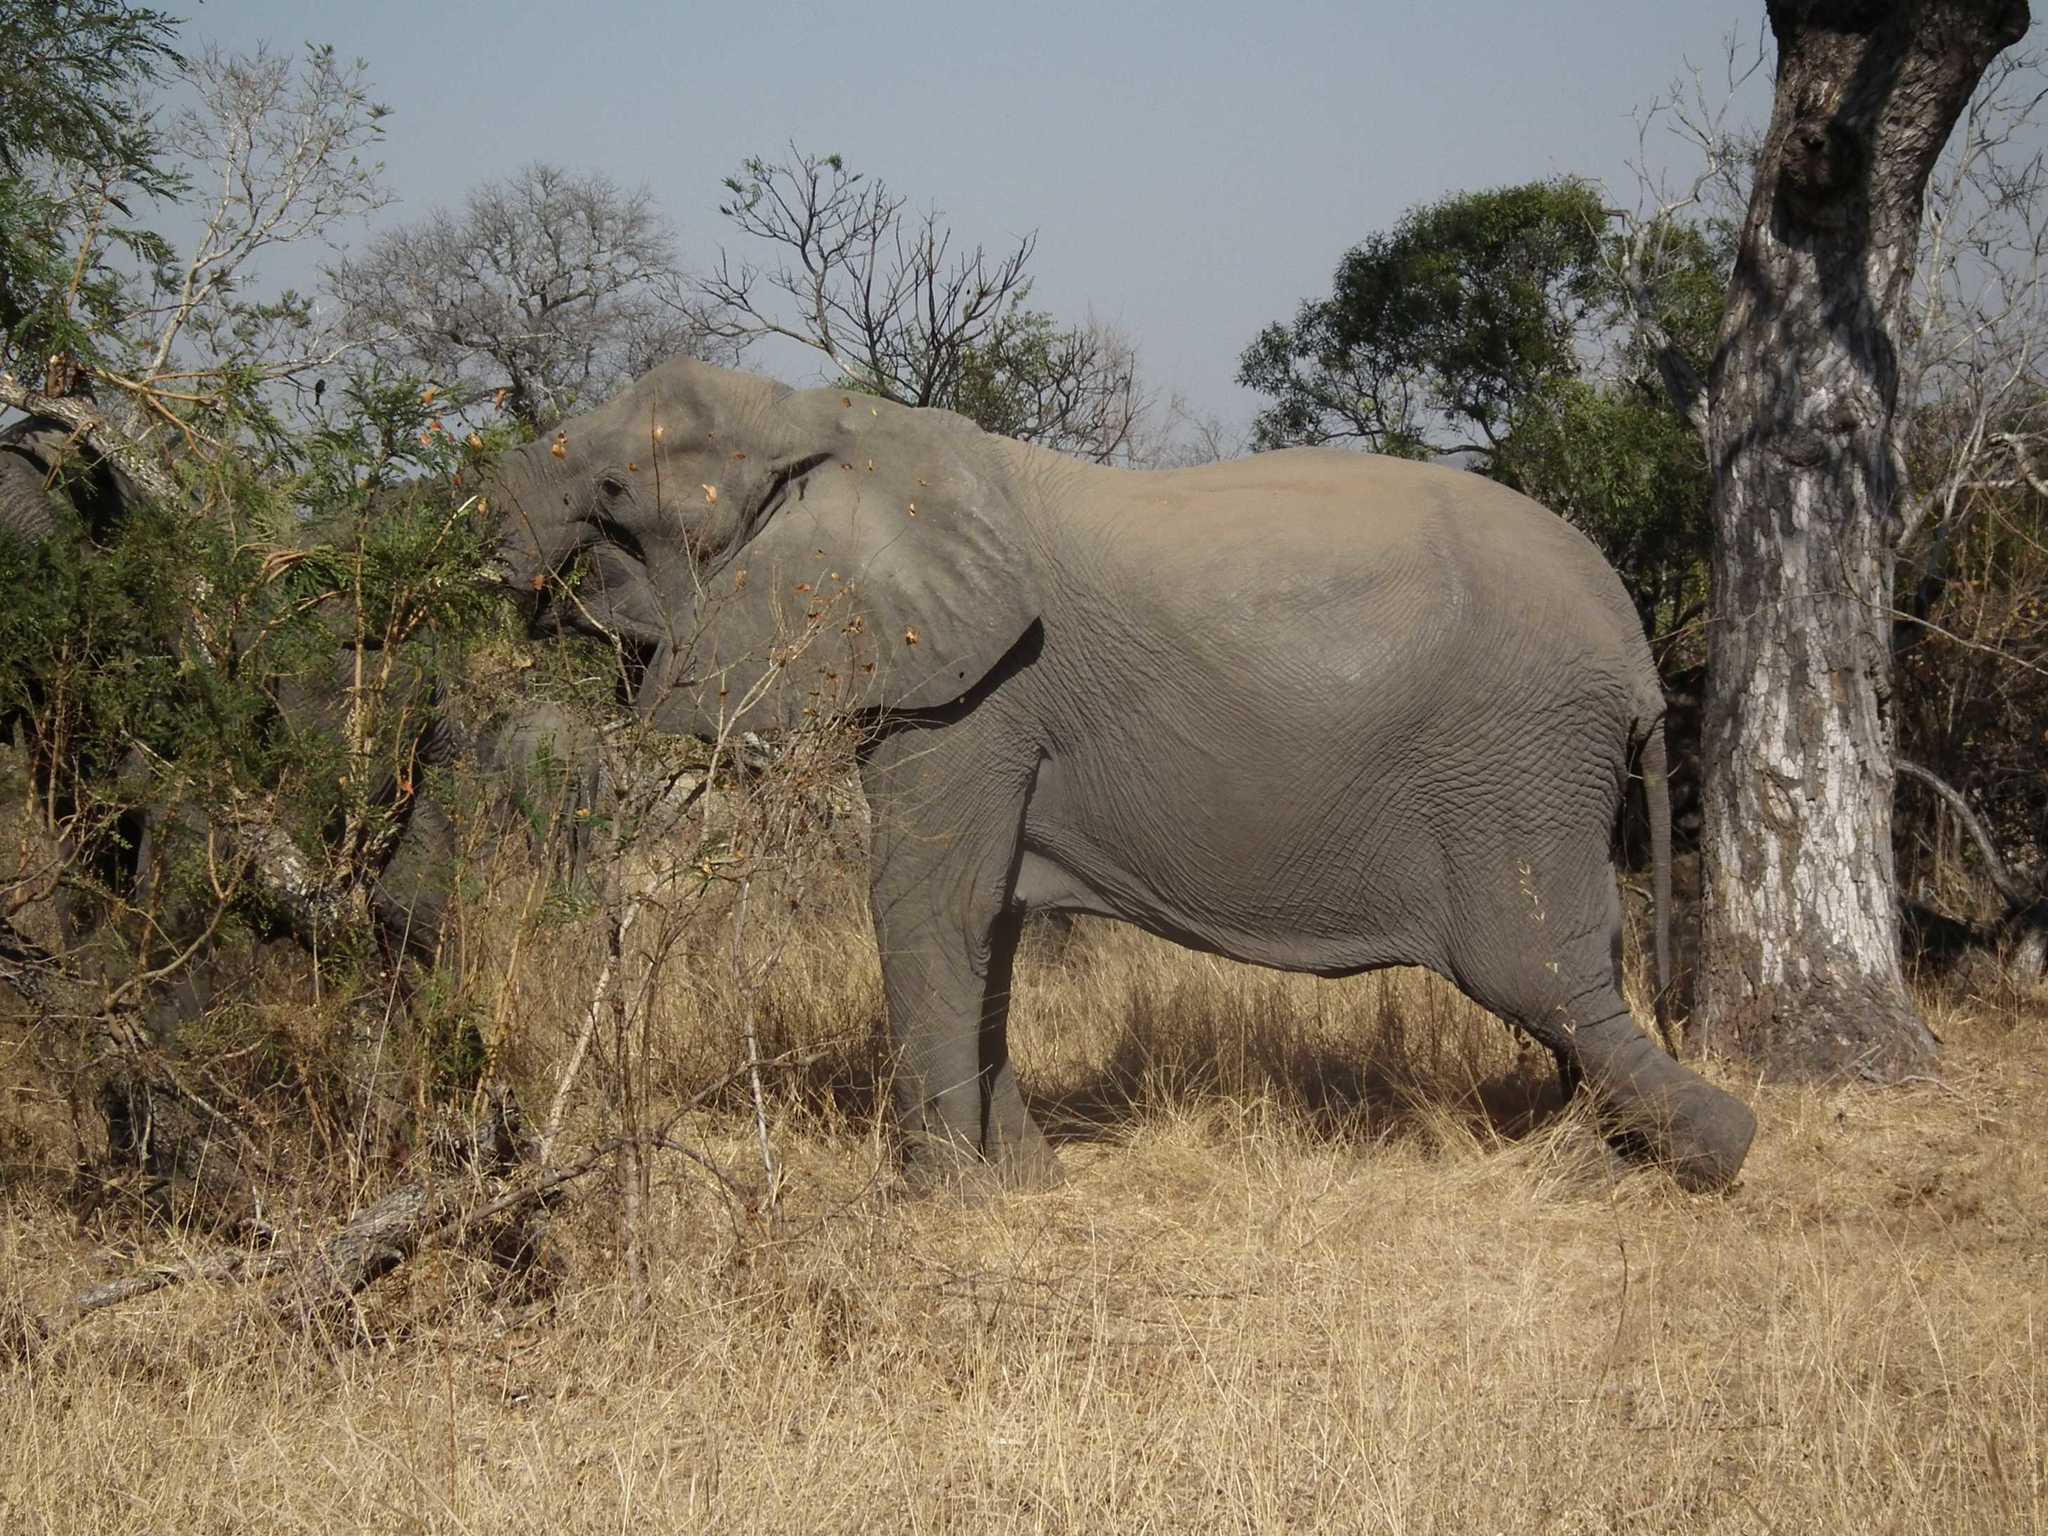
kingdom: Animalia
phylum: Chordata
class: Mammalia
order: Proboscidea
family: Elephantidae
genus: Loxodonta
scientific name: Loxodonta africana
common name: African elephant
